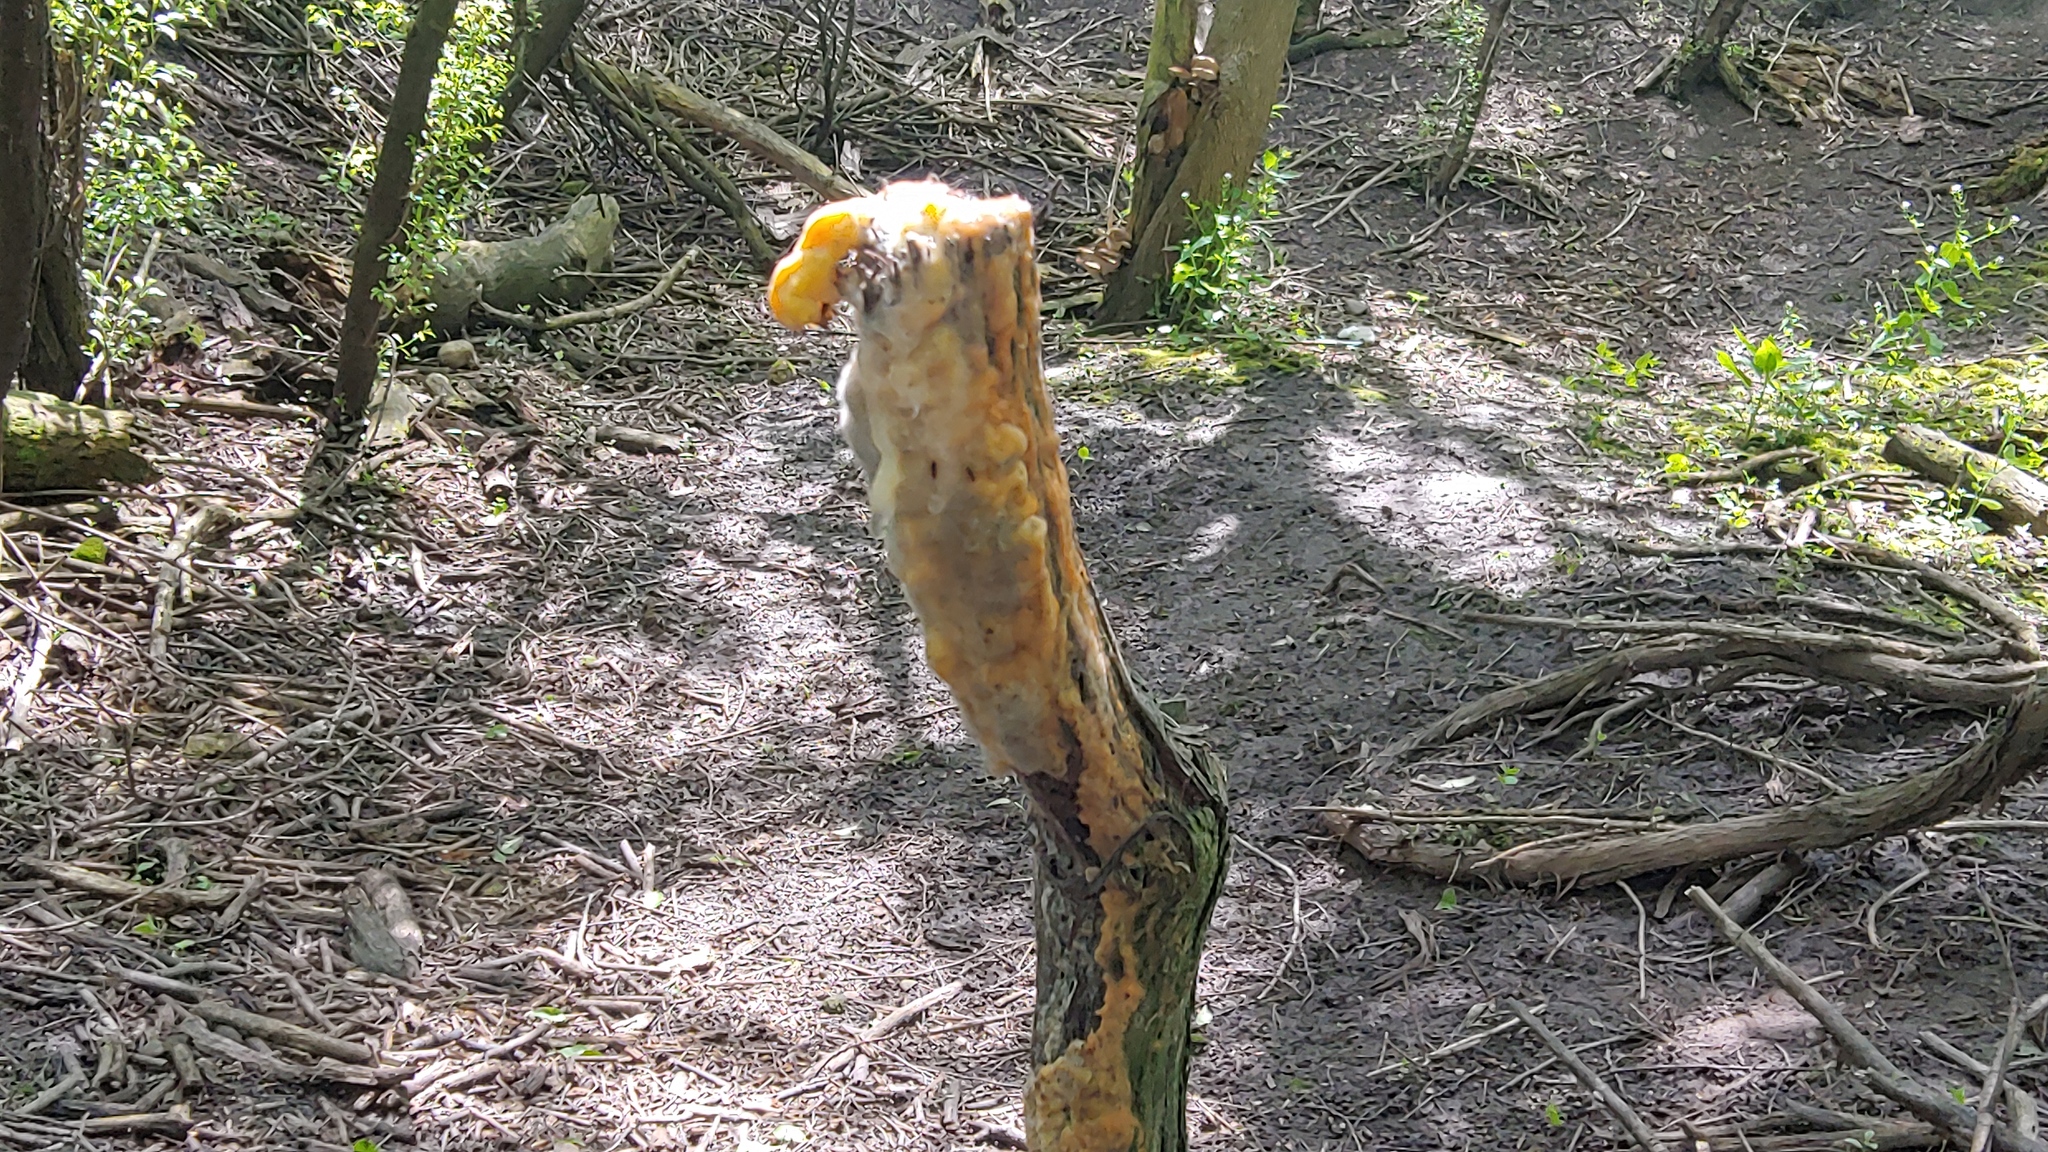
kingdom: Fungi
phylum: Basidiomycota
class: Tremellomycetes
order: Cystofilobasidiales
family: Cystofilobasidiaceae
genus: Cystofilobasidium
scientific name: Cystofilobasidium macerans
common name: Sap yeast
